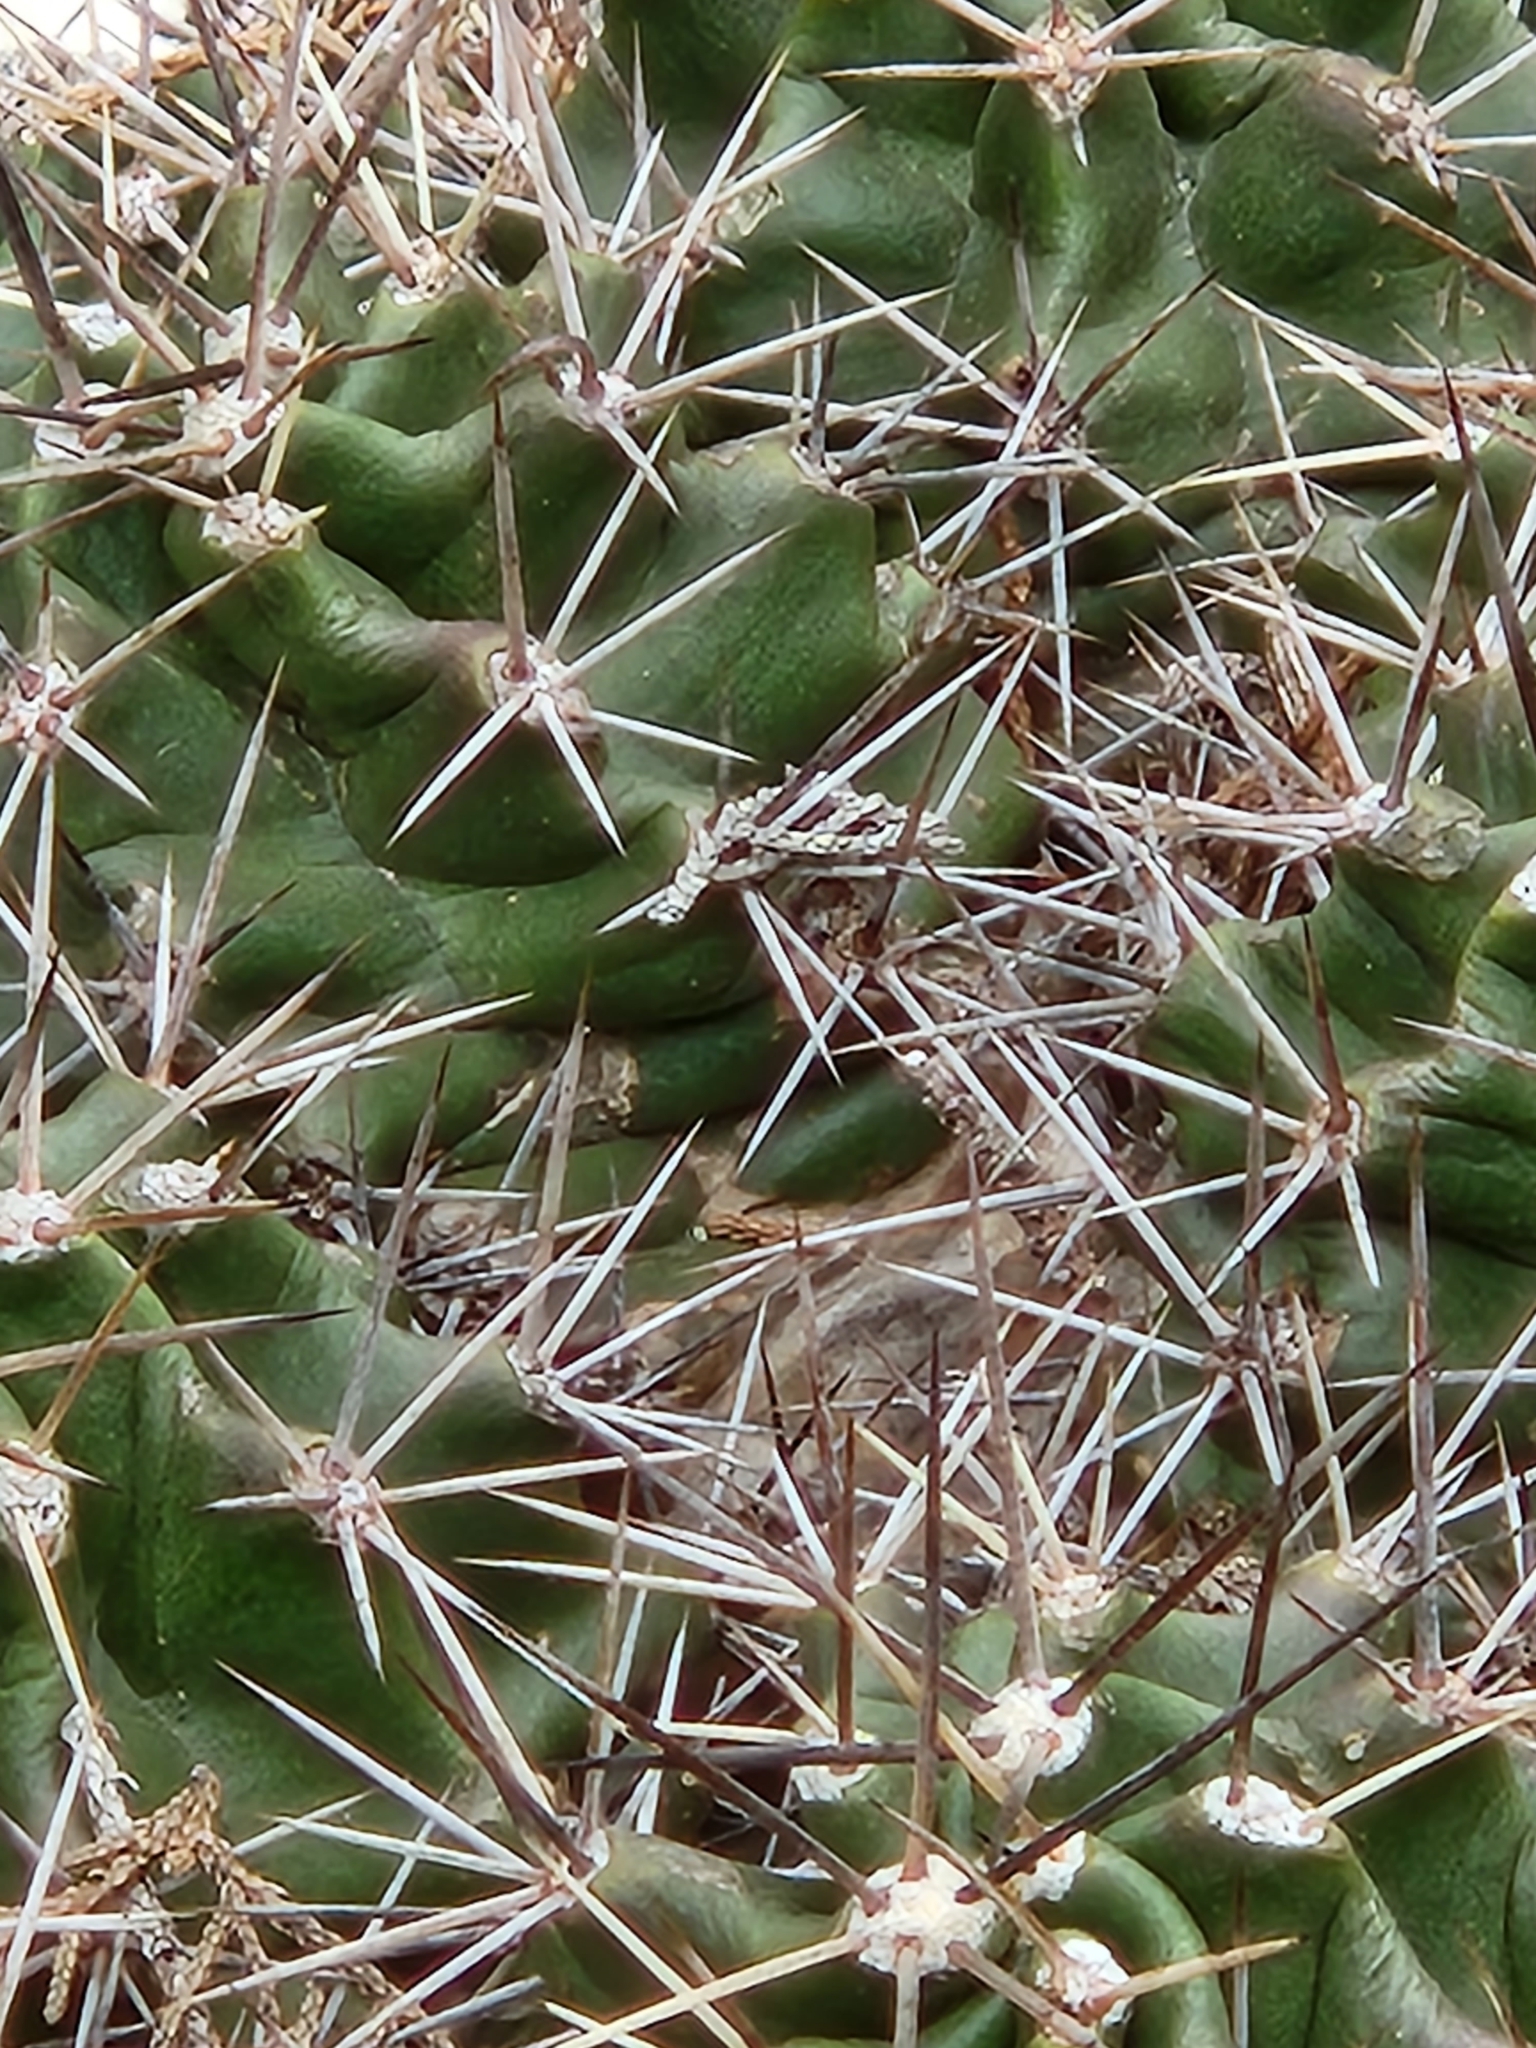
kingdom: Plantae
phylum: Tracheophyta
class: Magnoliopsida
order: Caryophyllales
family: Cactaceae
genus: Echinocereus
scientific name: Echinocereus coccineus
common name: Scarlet hedgehog cactus
